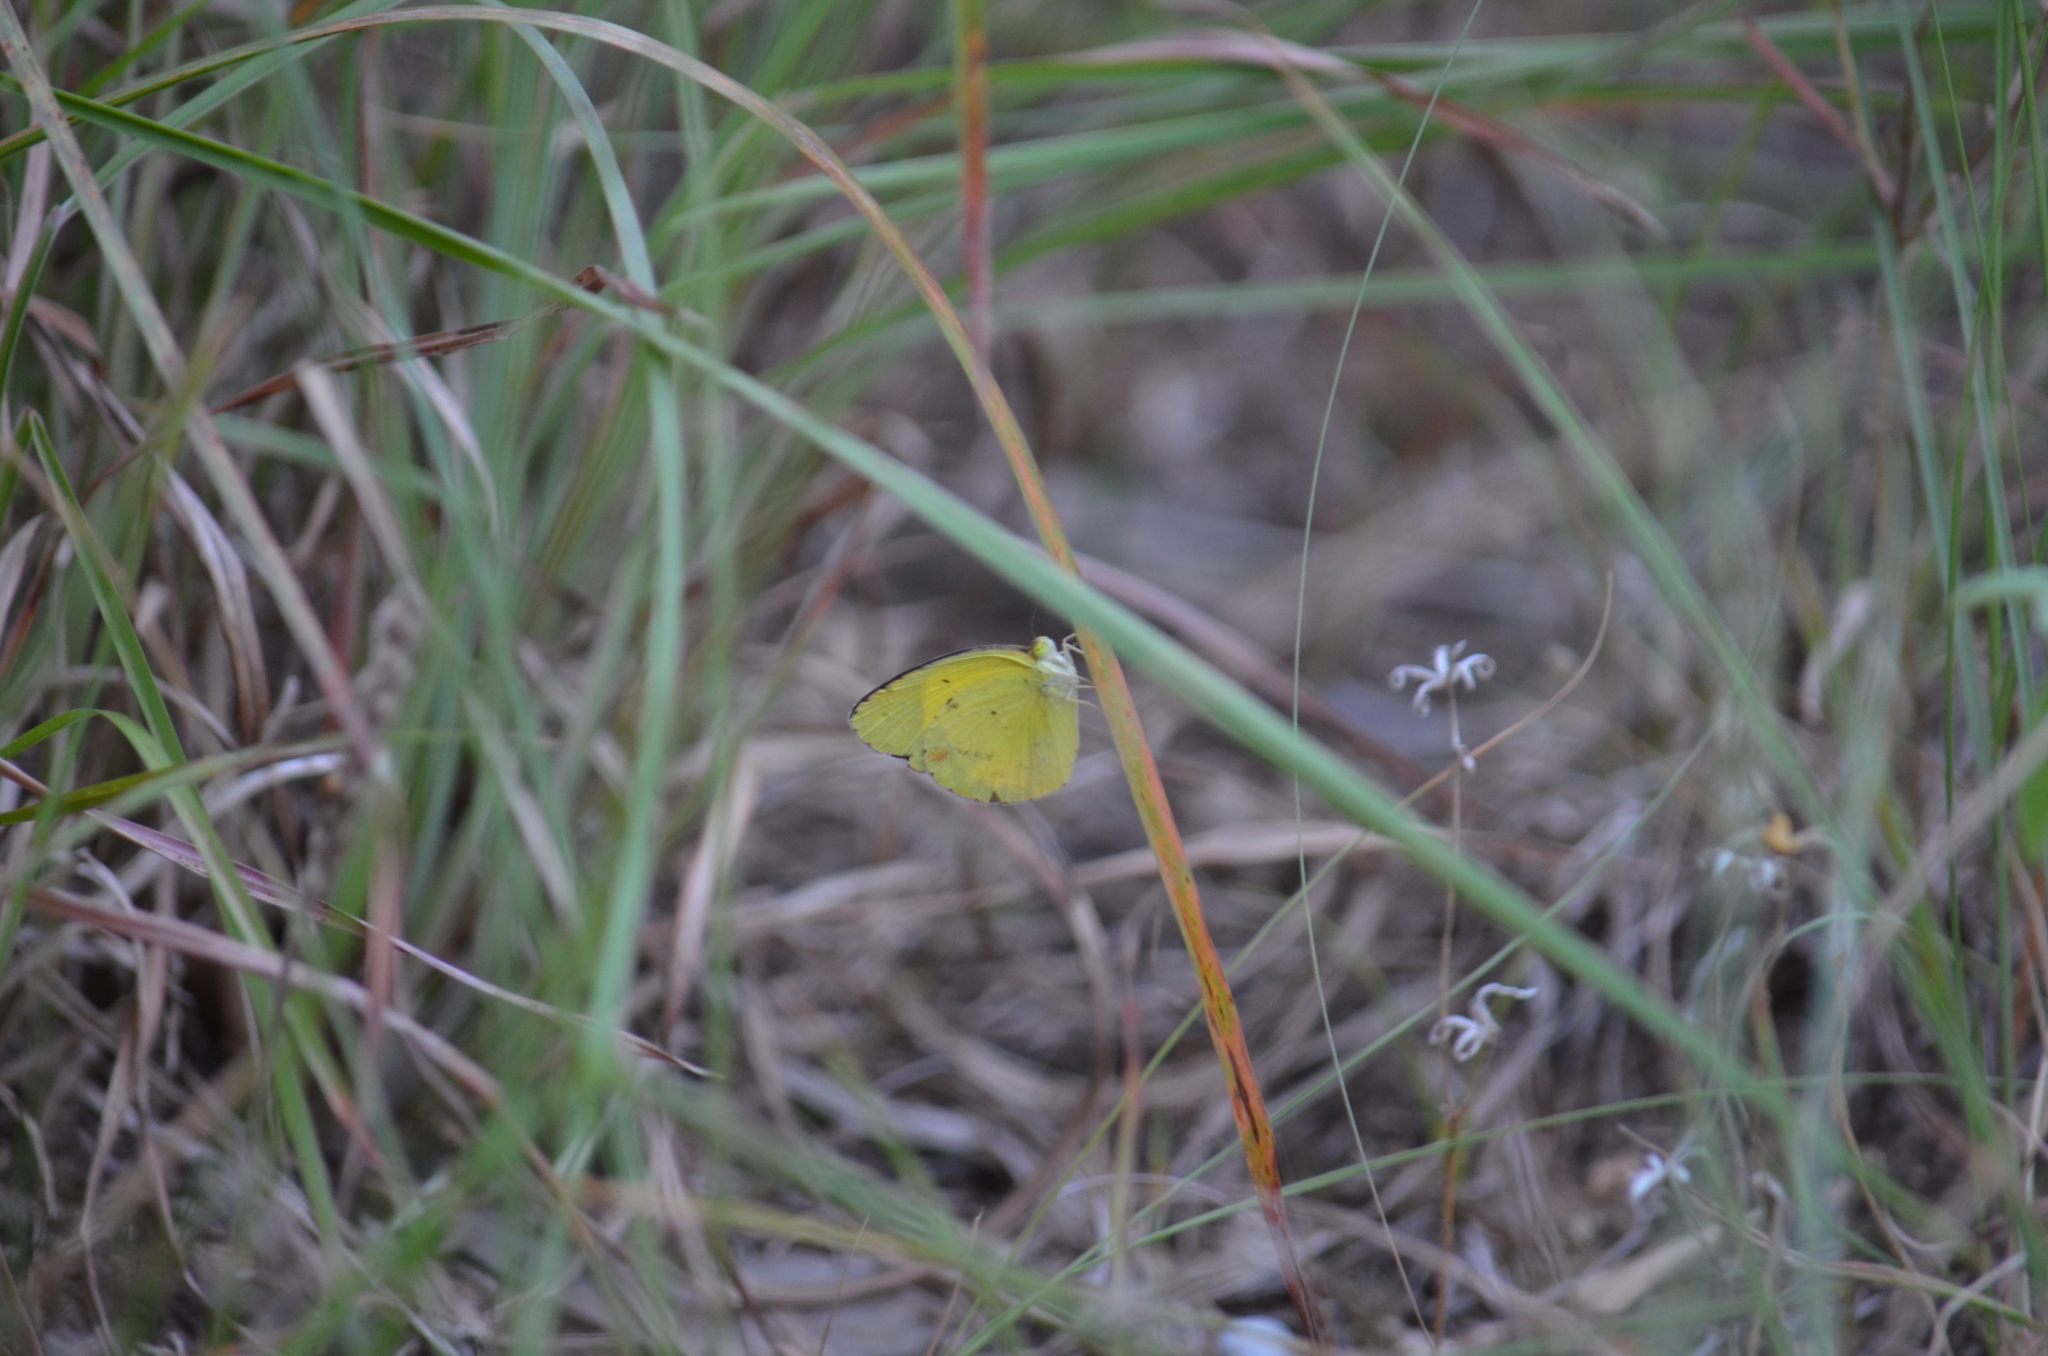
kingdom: Animalia
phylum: Arthropoda
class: Insecta
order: Lepidoptera
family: Pieridae
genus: Pyrisitia
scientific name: Pyrisitia lisa
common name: Little yellow
